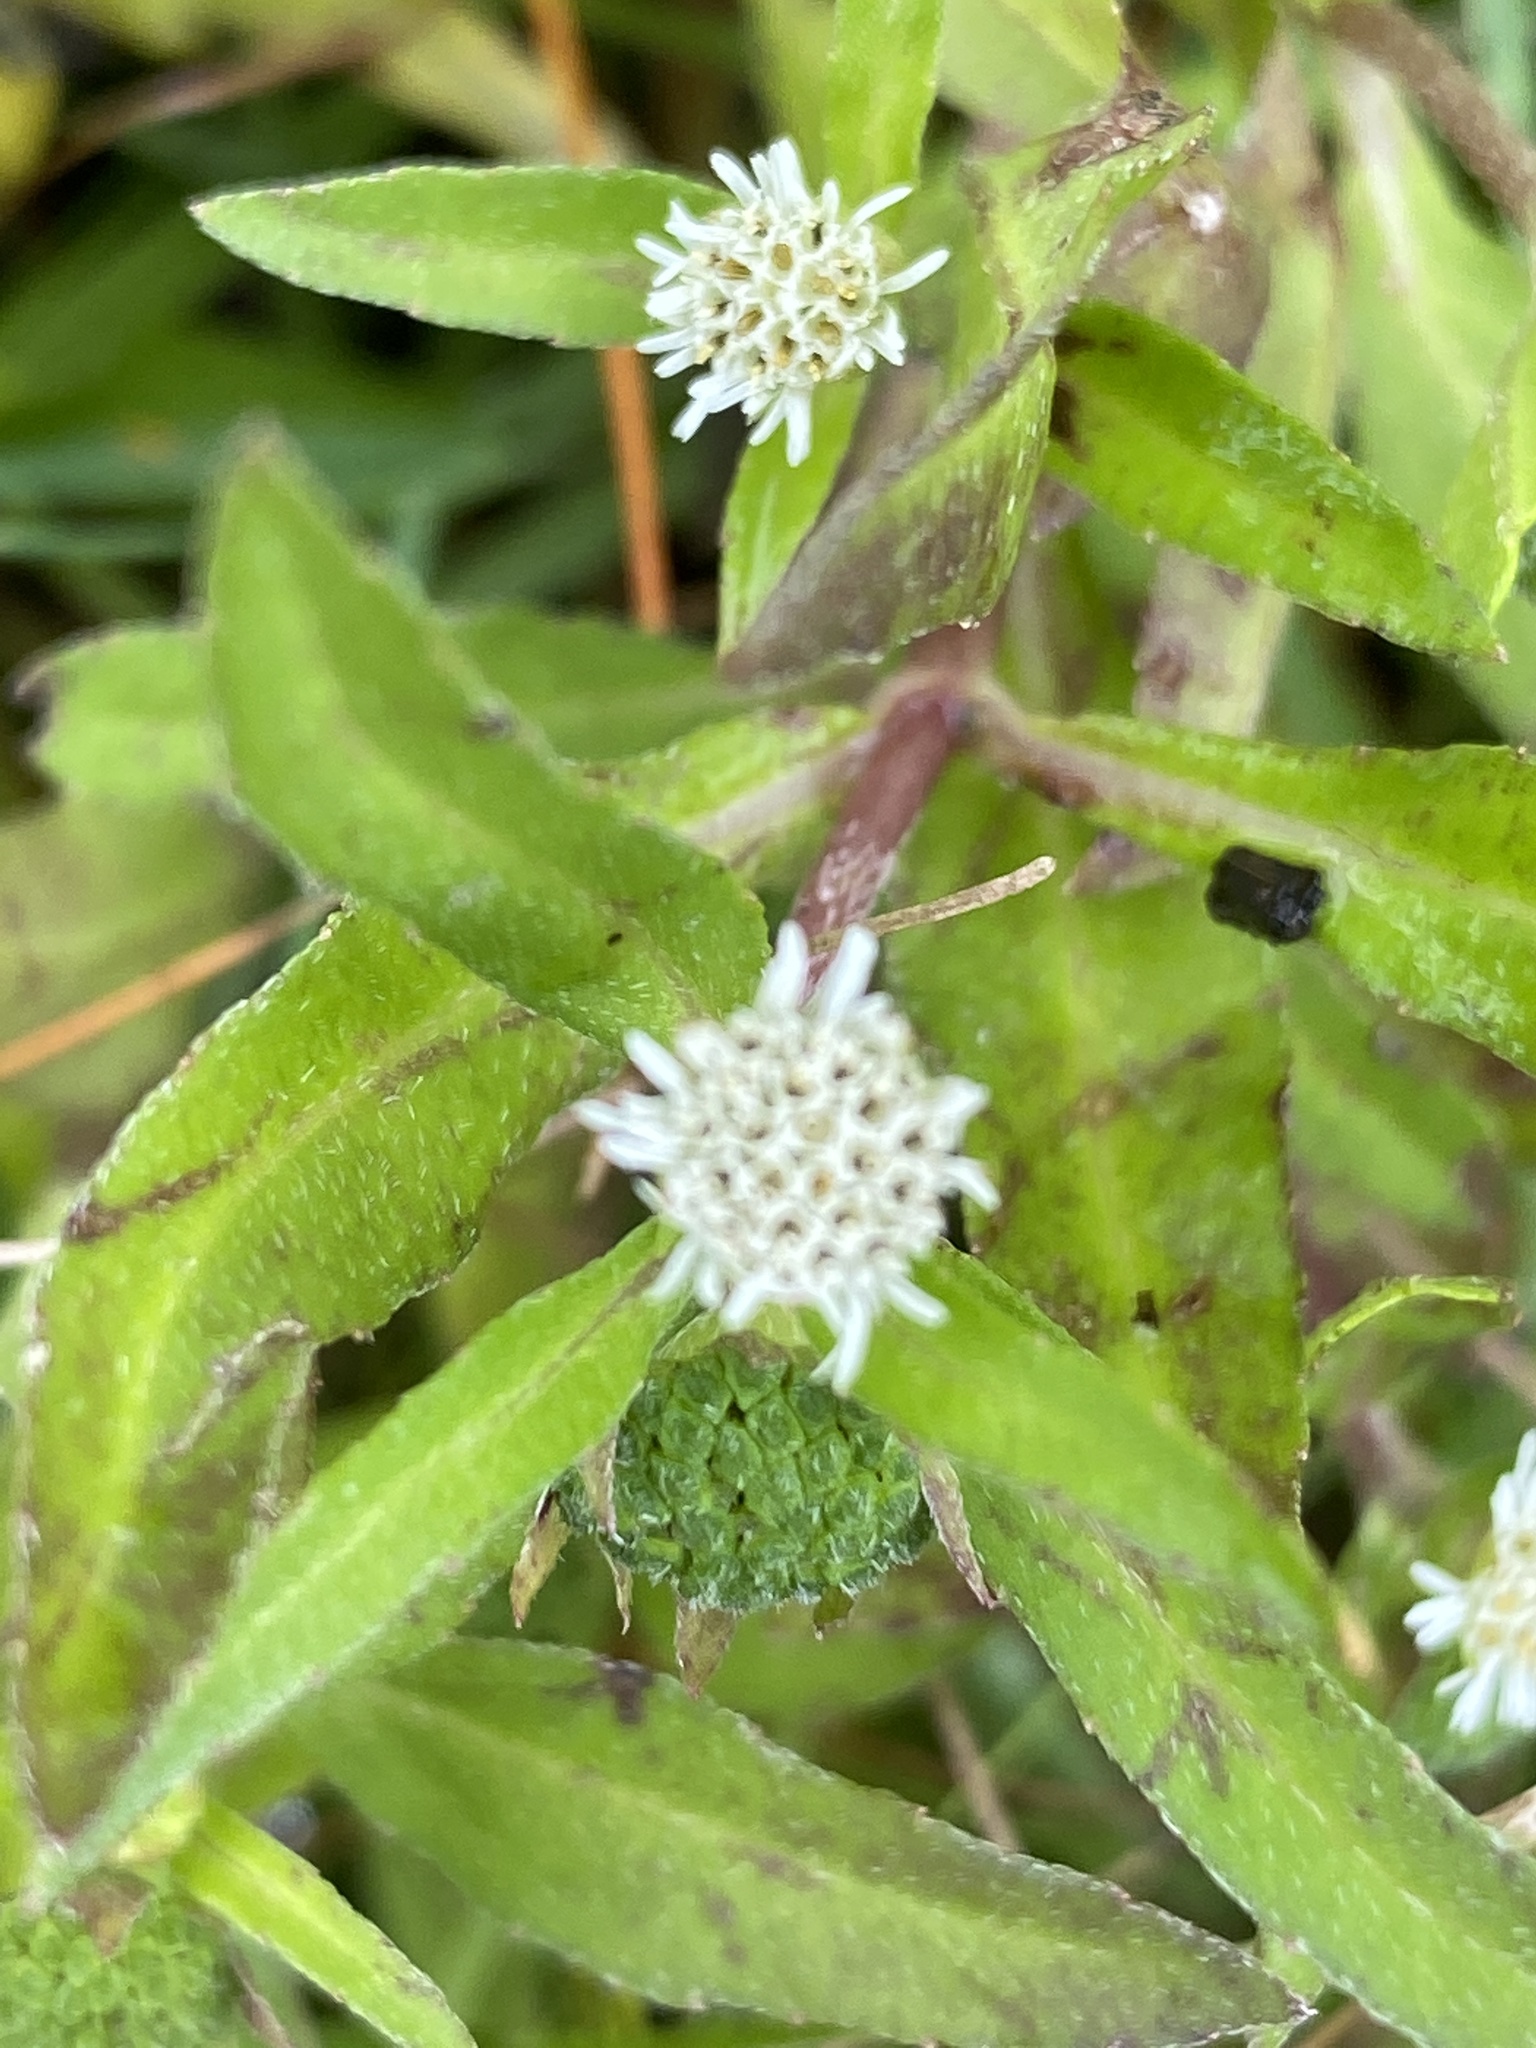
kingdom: Plantae
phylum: Tracheophyta
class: Magnoliopsida
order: Asterales
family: Asteraceae
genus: Eclipta
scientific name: Eclipta prostrata
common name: False daisy
